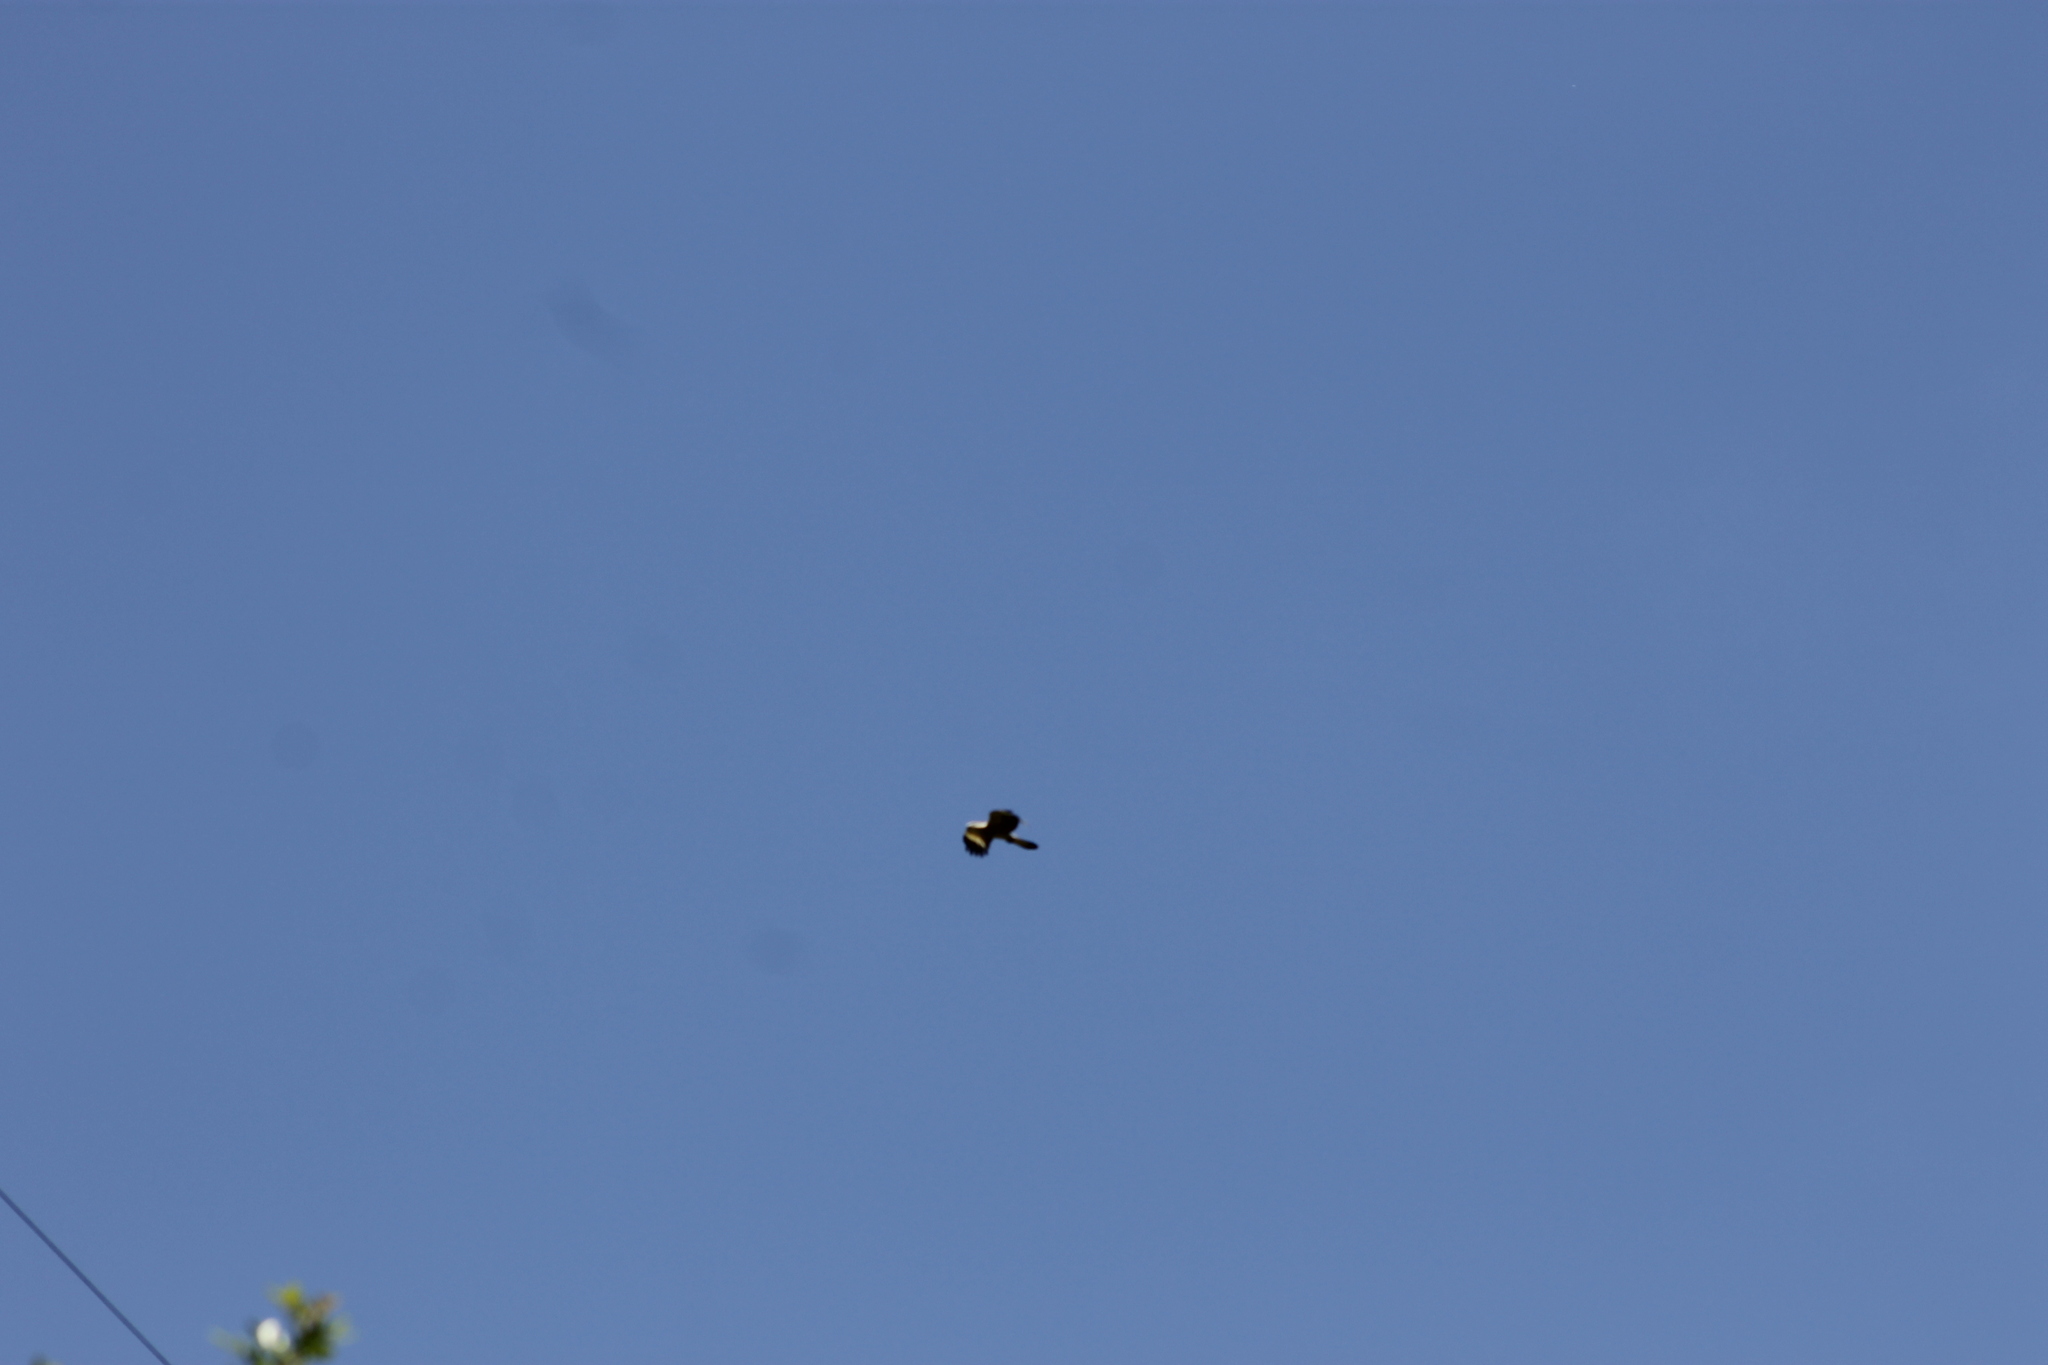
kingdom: Animalia
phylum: Chordata
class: Aves
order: Falconiformes
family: Falconidae
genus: Daptrius
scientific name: Daptrius
